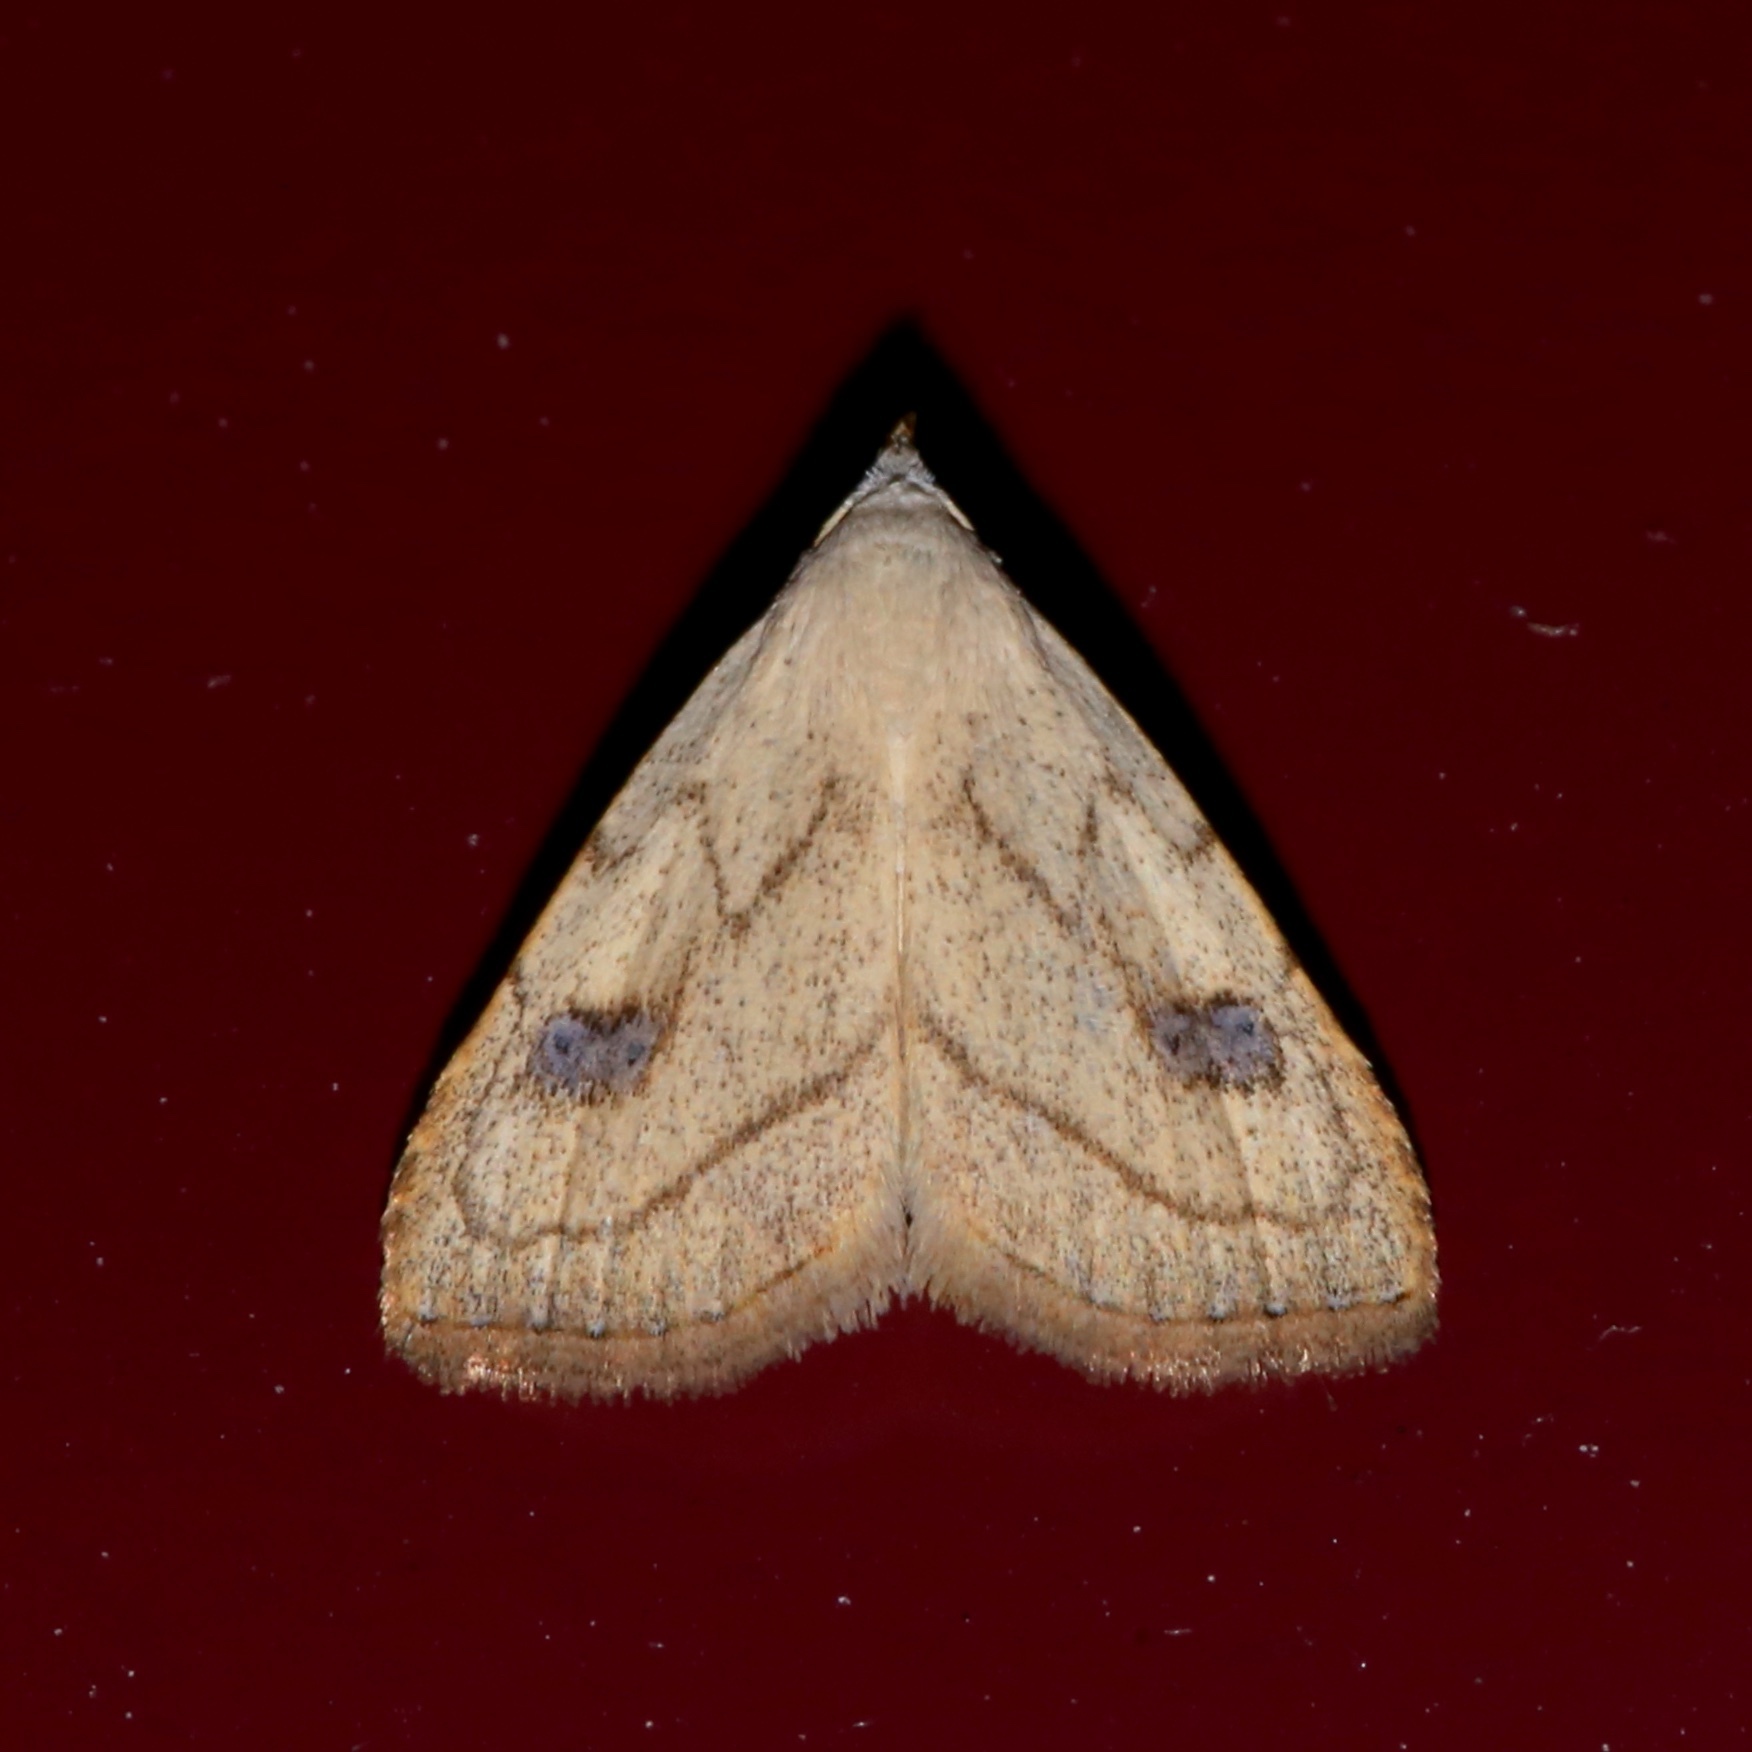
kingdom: Animalia
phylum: Arthropoda
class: Insecta
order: Lepidoptera
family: Erebidae
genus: Rivula
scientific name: Rivula propinqualis
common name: Spotted grass moth
